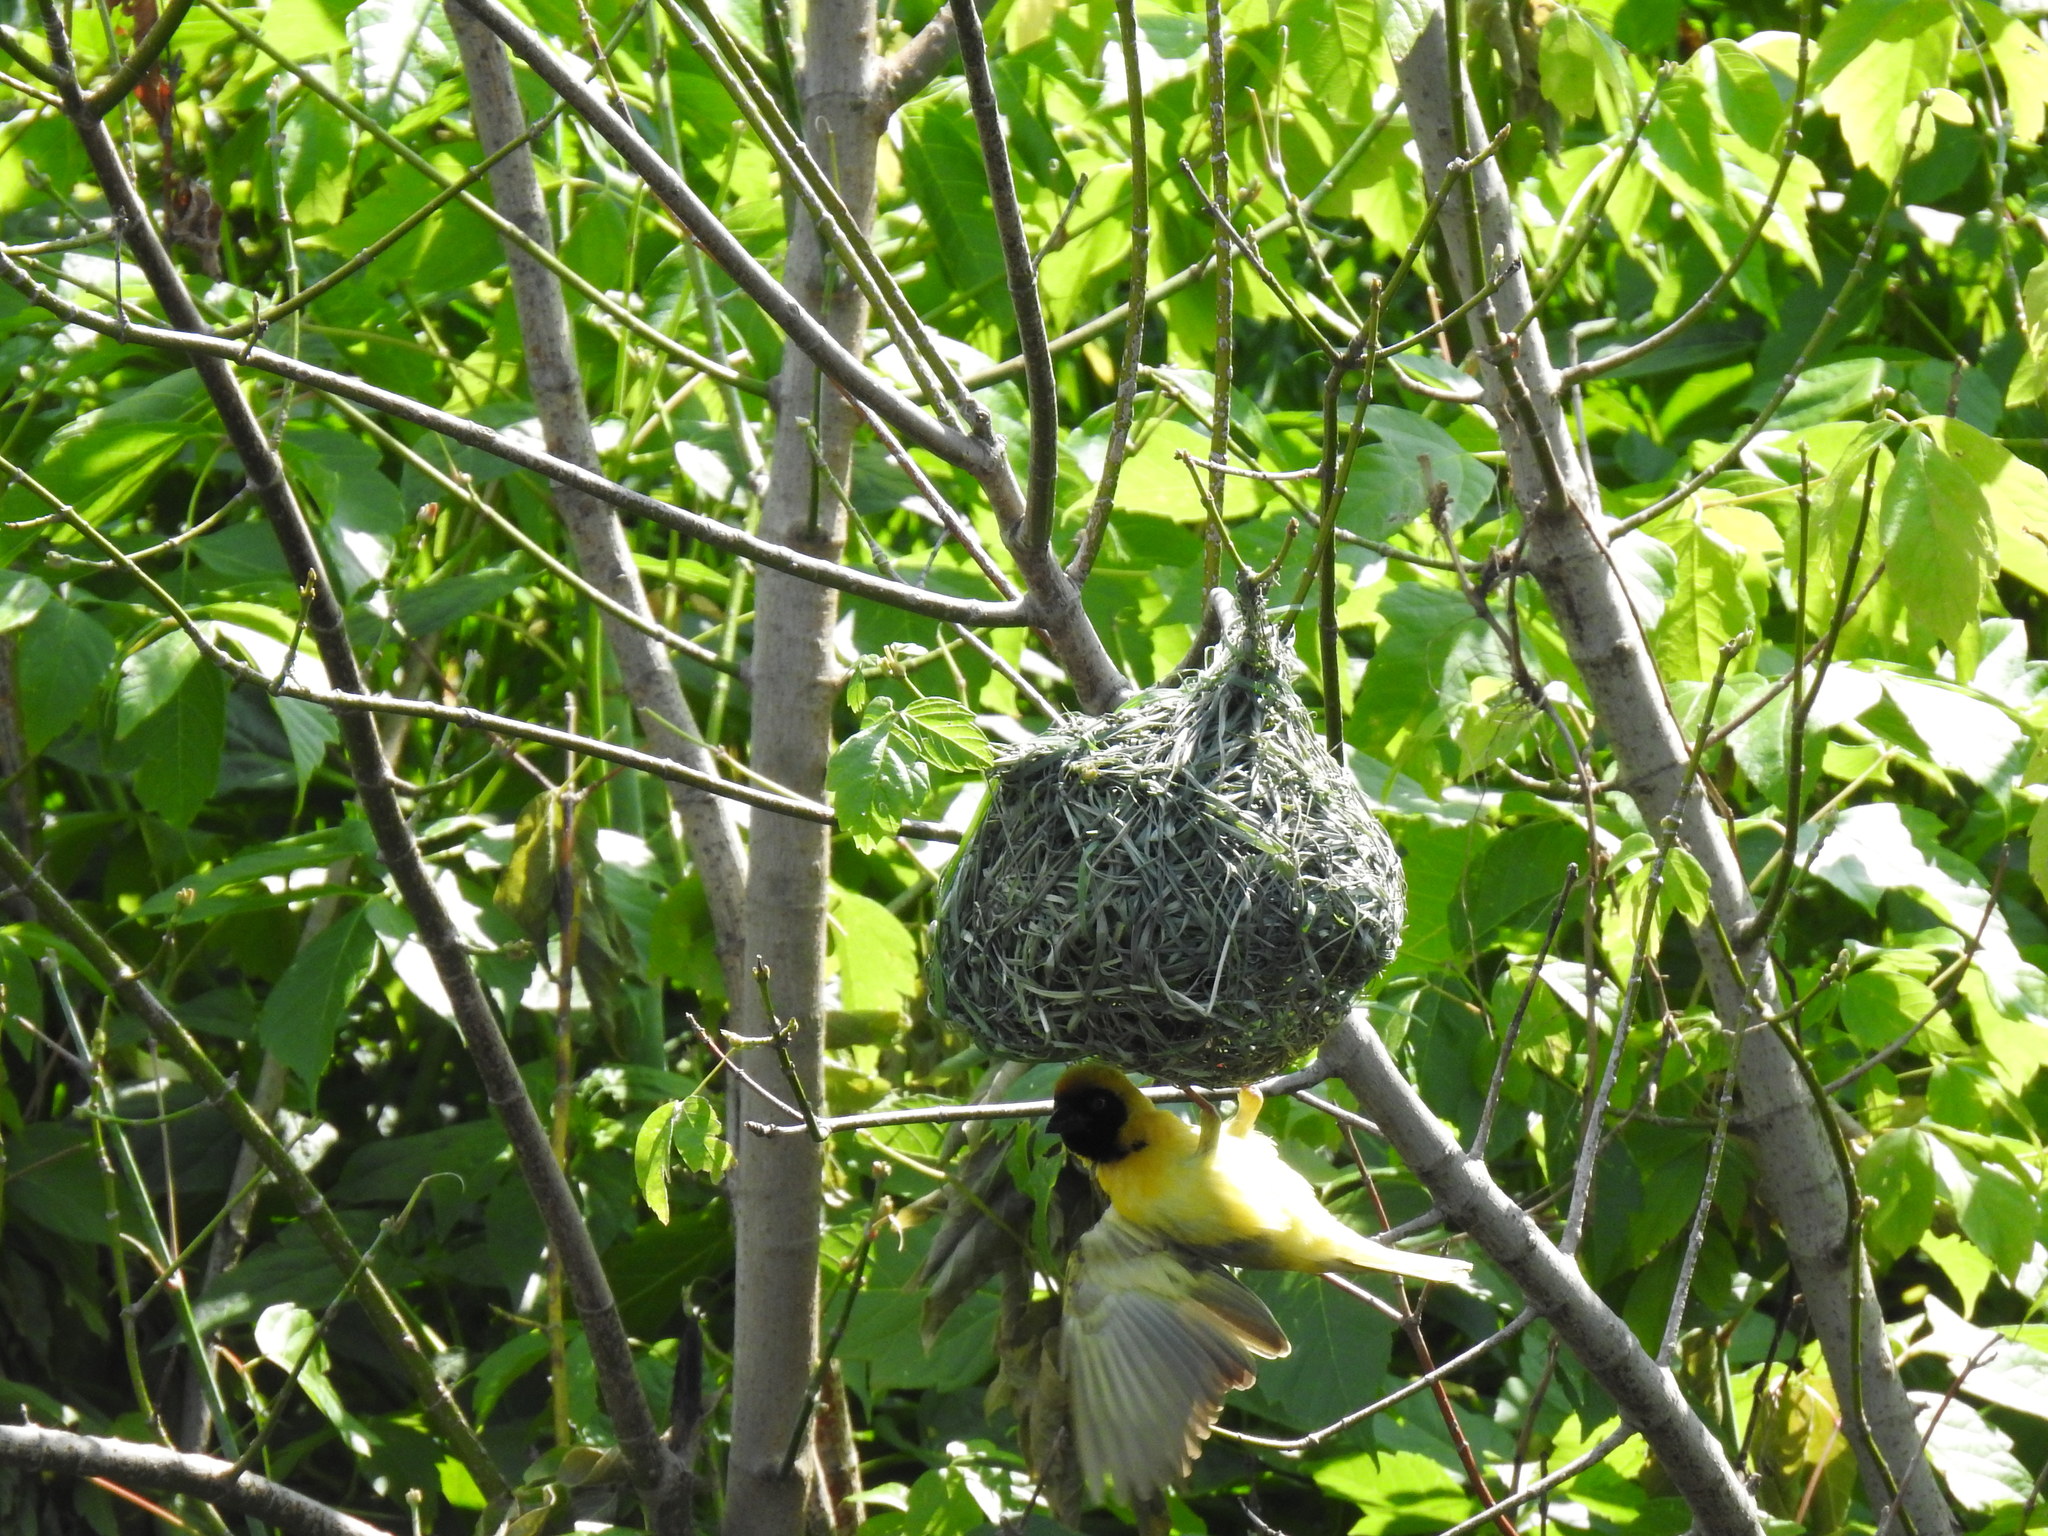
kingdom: Animalia
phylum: Chordata
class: Aves
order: Passeriformes
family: Ploceidae
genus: Ploceus
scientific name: Ploceus velatus
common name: Southern masked weaver
